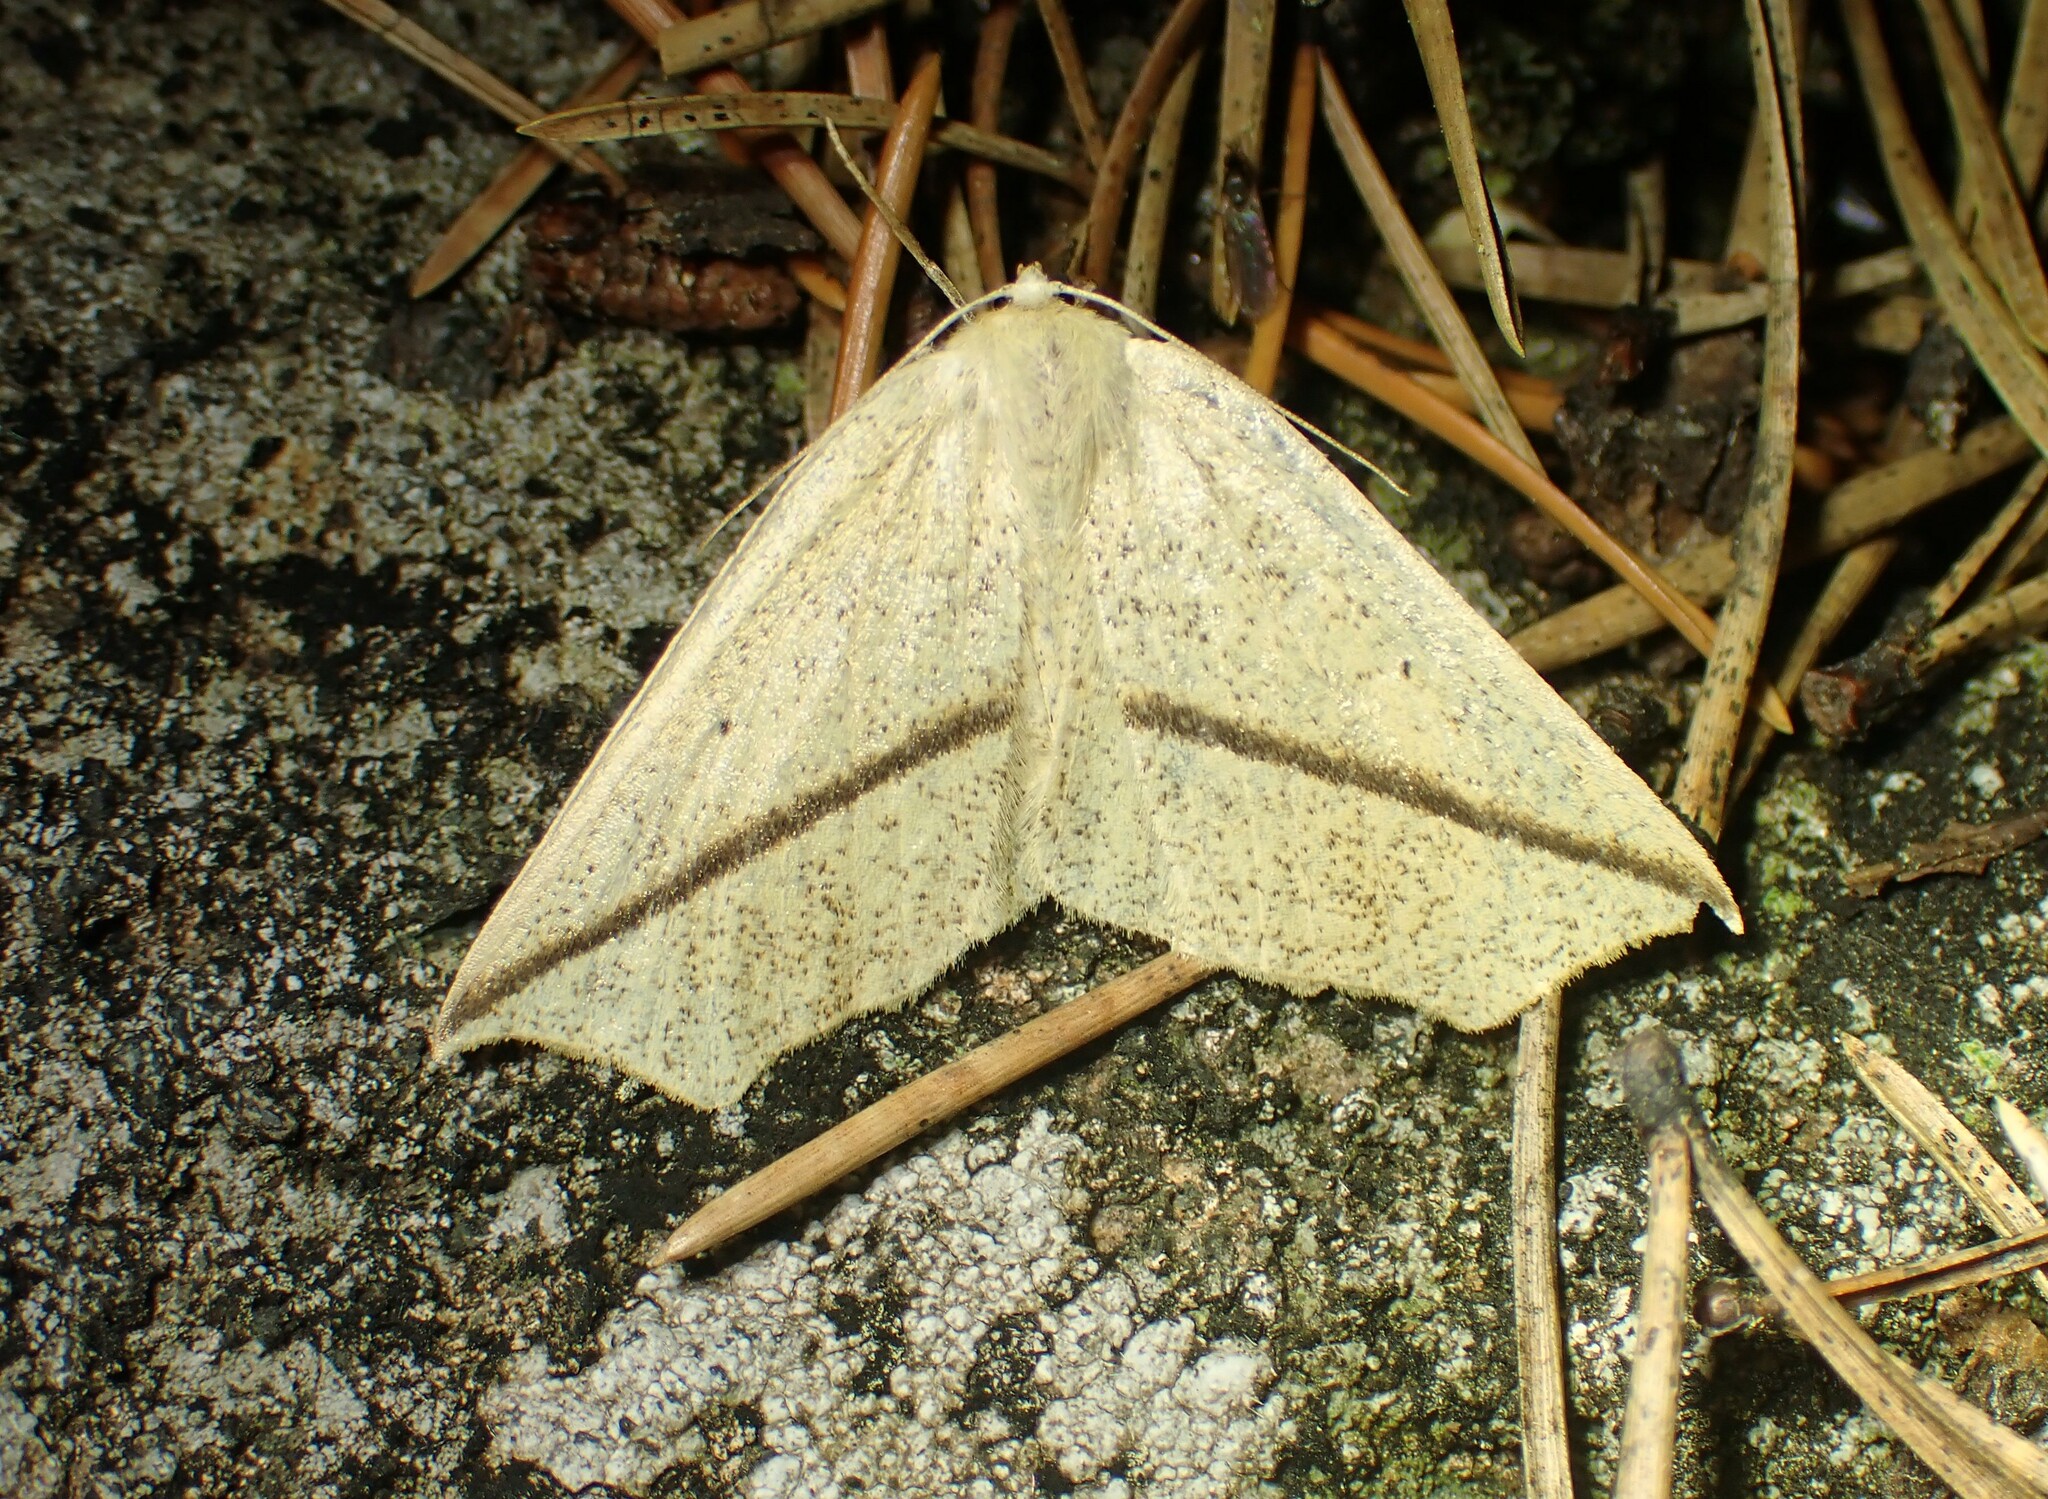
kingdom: Animalia
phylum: Arthropoda
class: Insecta
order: Lepidoptera
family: Geometridae
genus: Tetracis
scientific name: Tetracis crocallata
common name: Yellow slant-line
